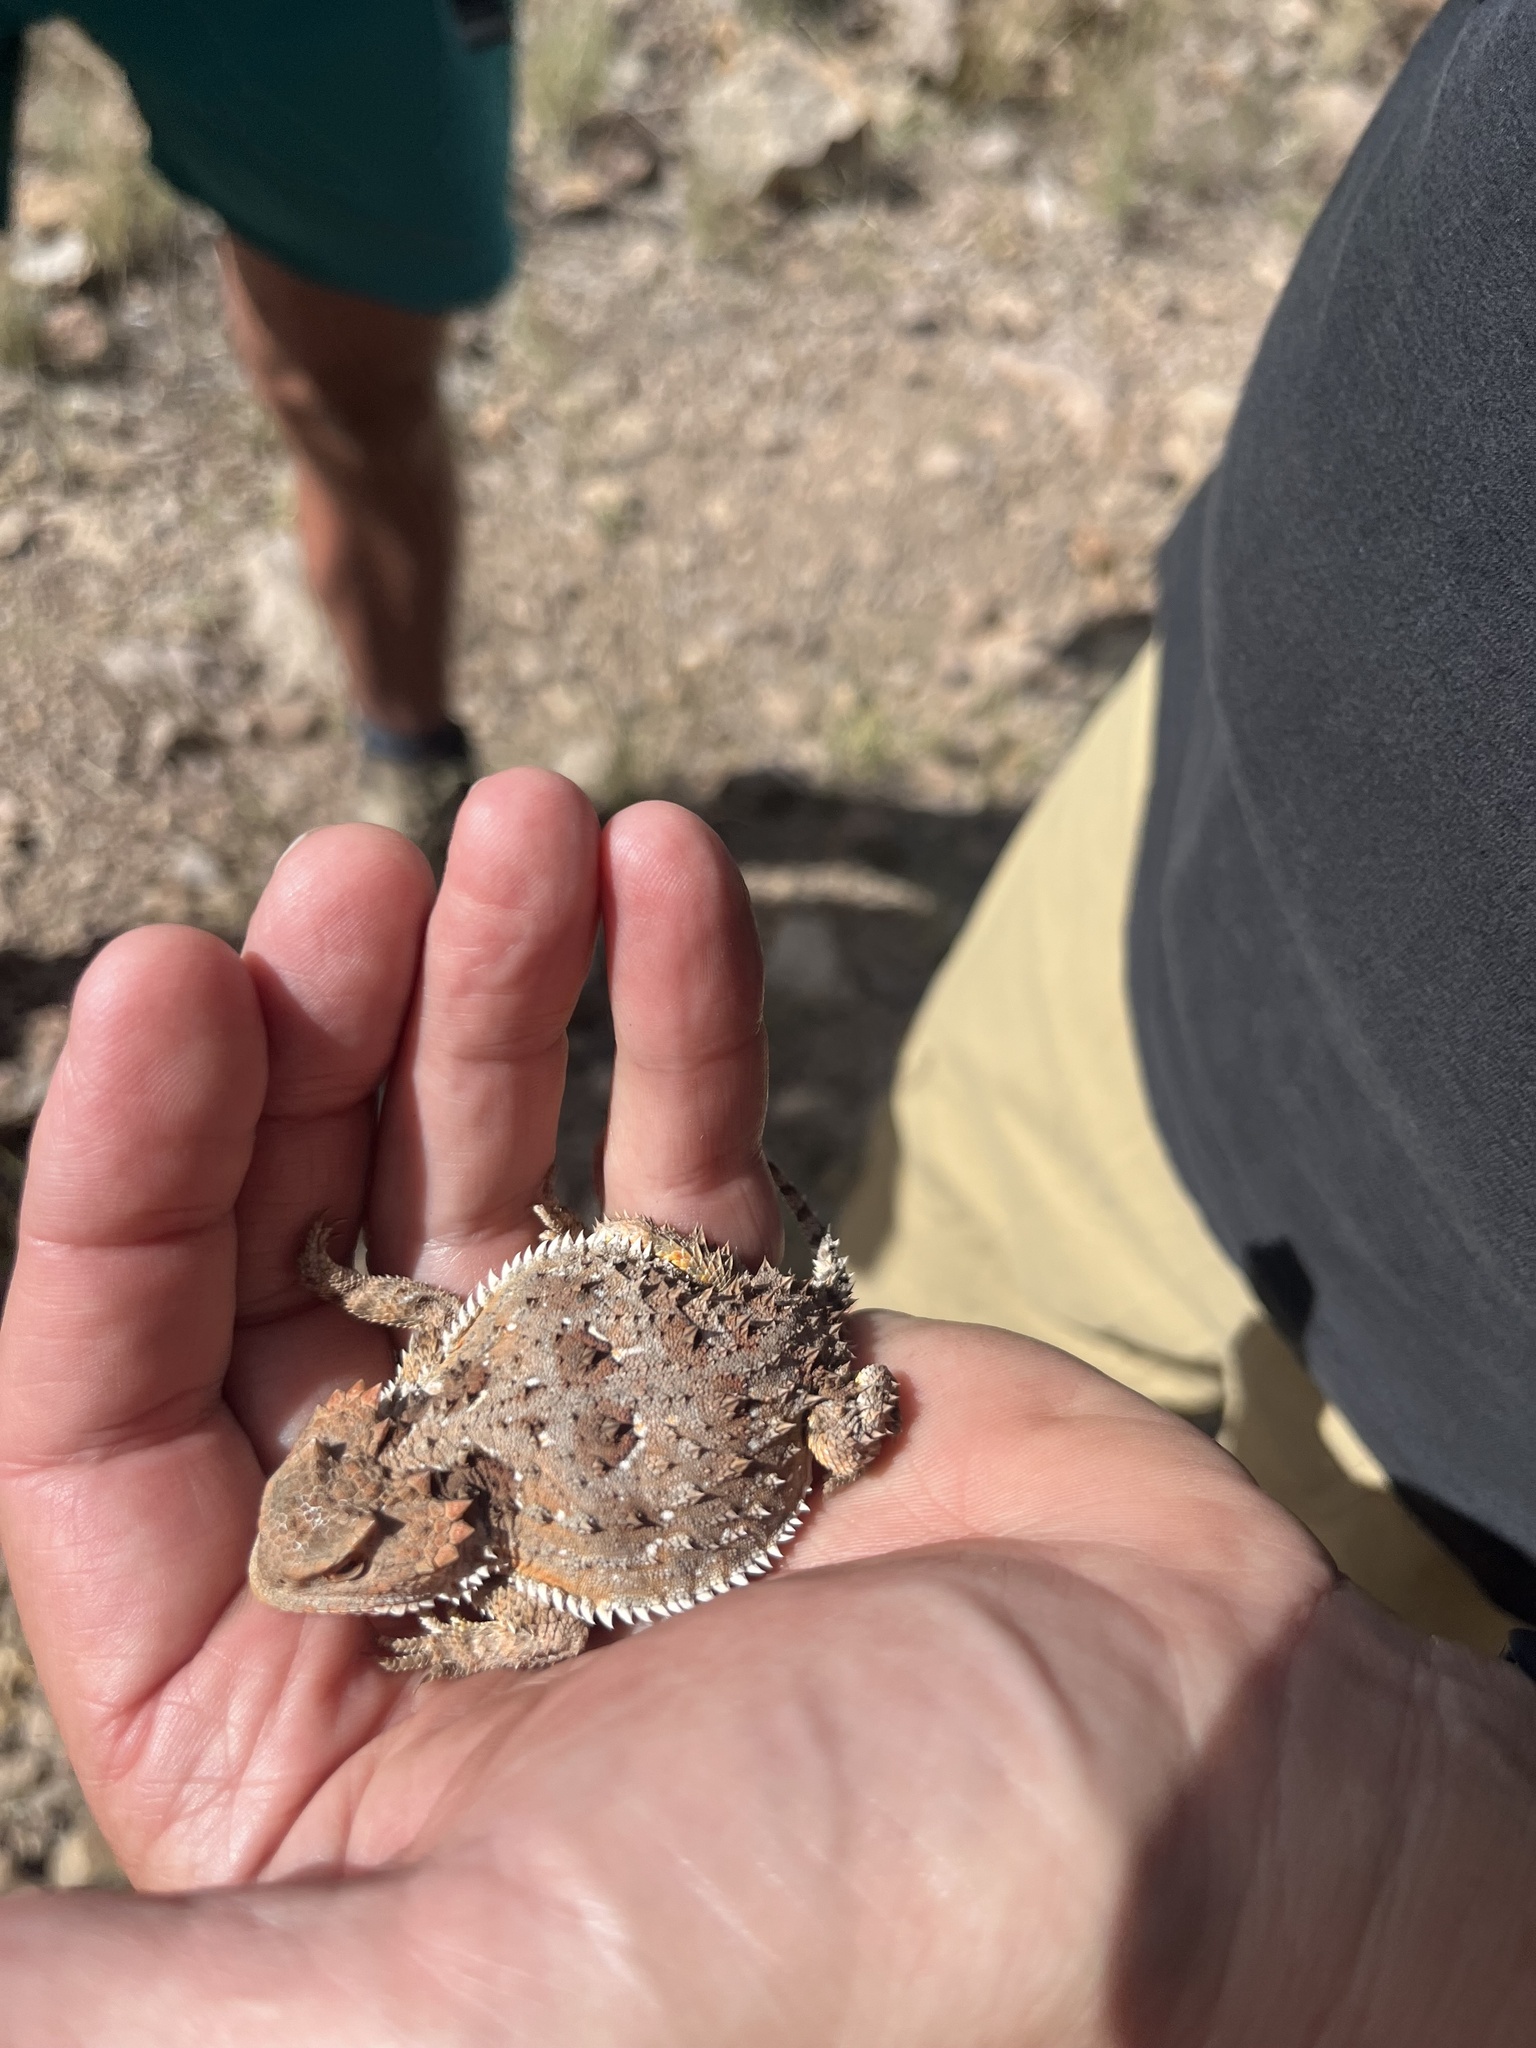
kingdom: Animalia
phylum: Chordata
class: Squamata
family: Phrynosomatidae
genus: Phrynosoma
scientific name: Phrynosoma hernandesi
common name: Greater short-horned lizard
